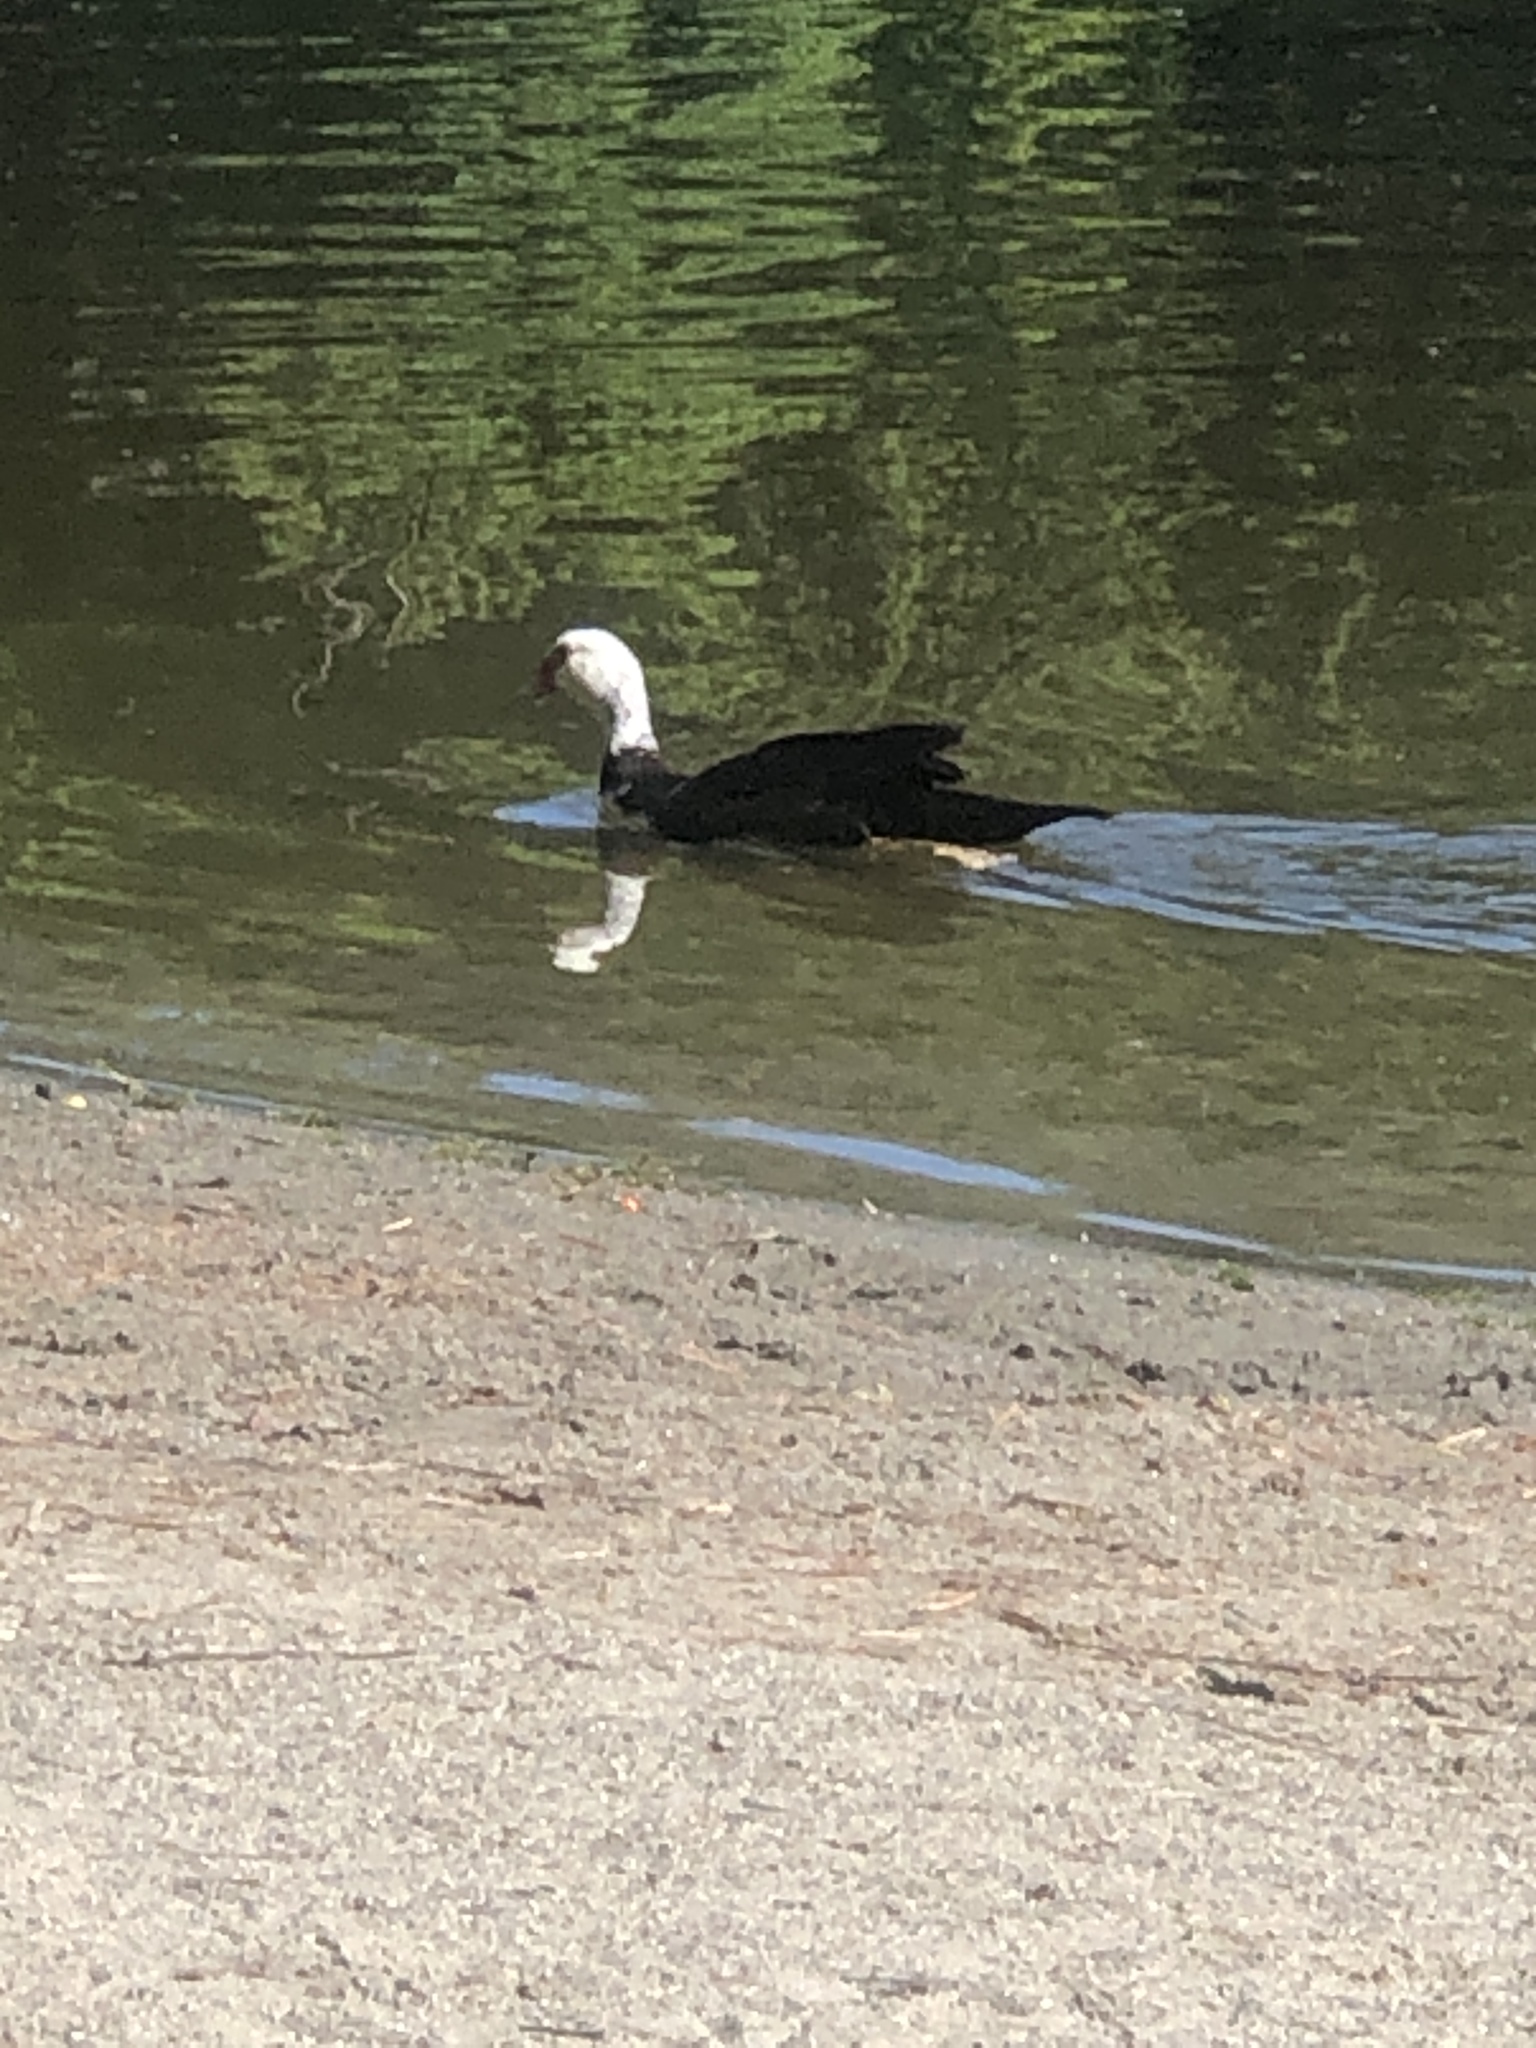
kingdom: Animalia
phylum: Chordata
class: Aves
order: Anseriformes
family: Anatidae
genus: Cairina
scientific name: Cairina moschata
